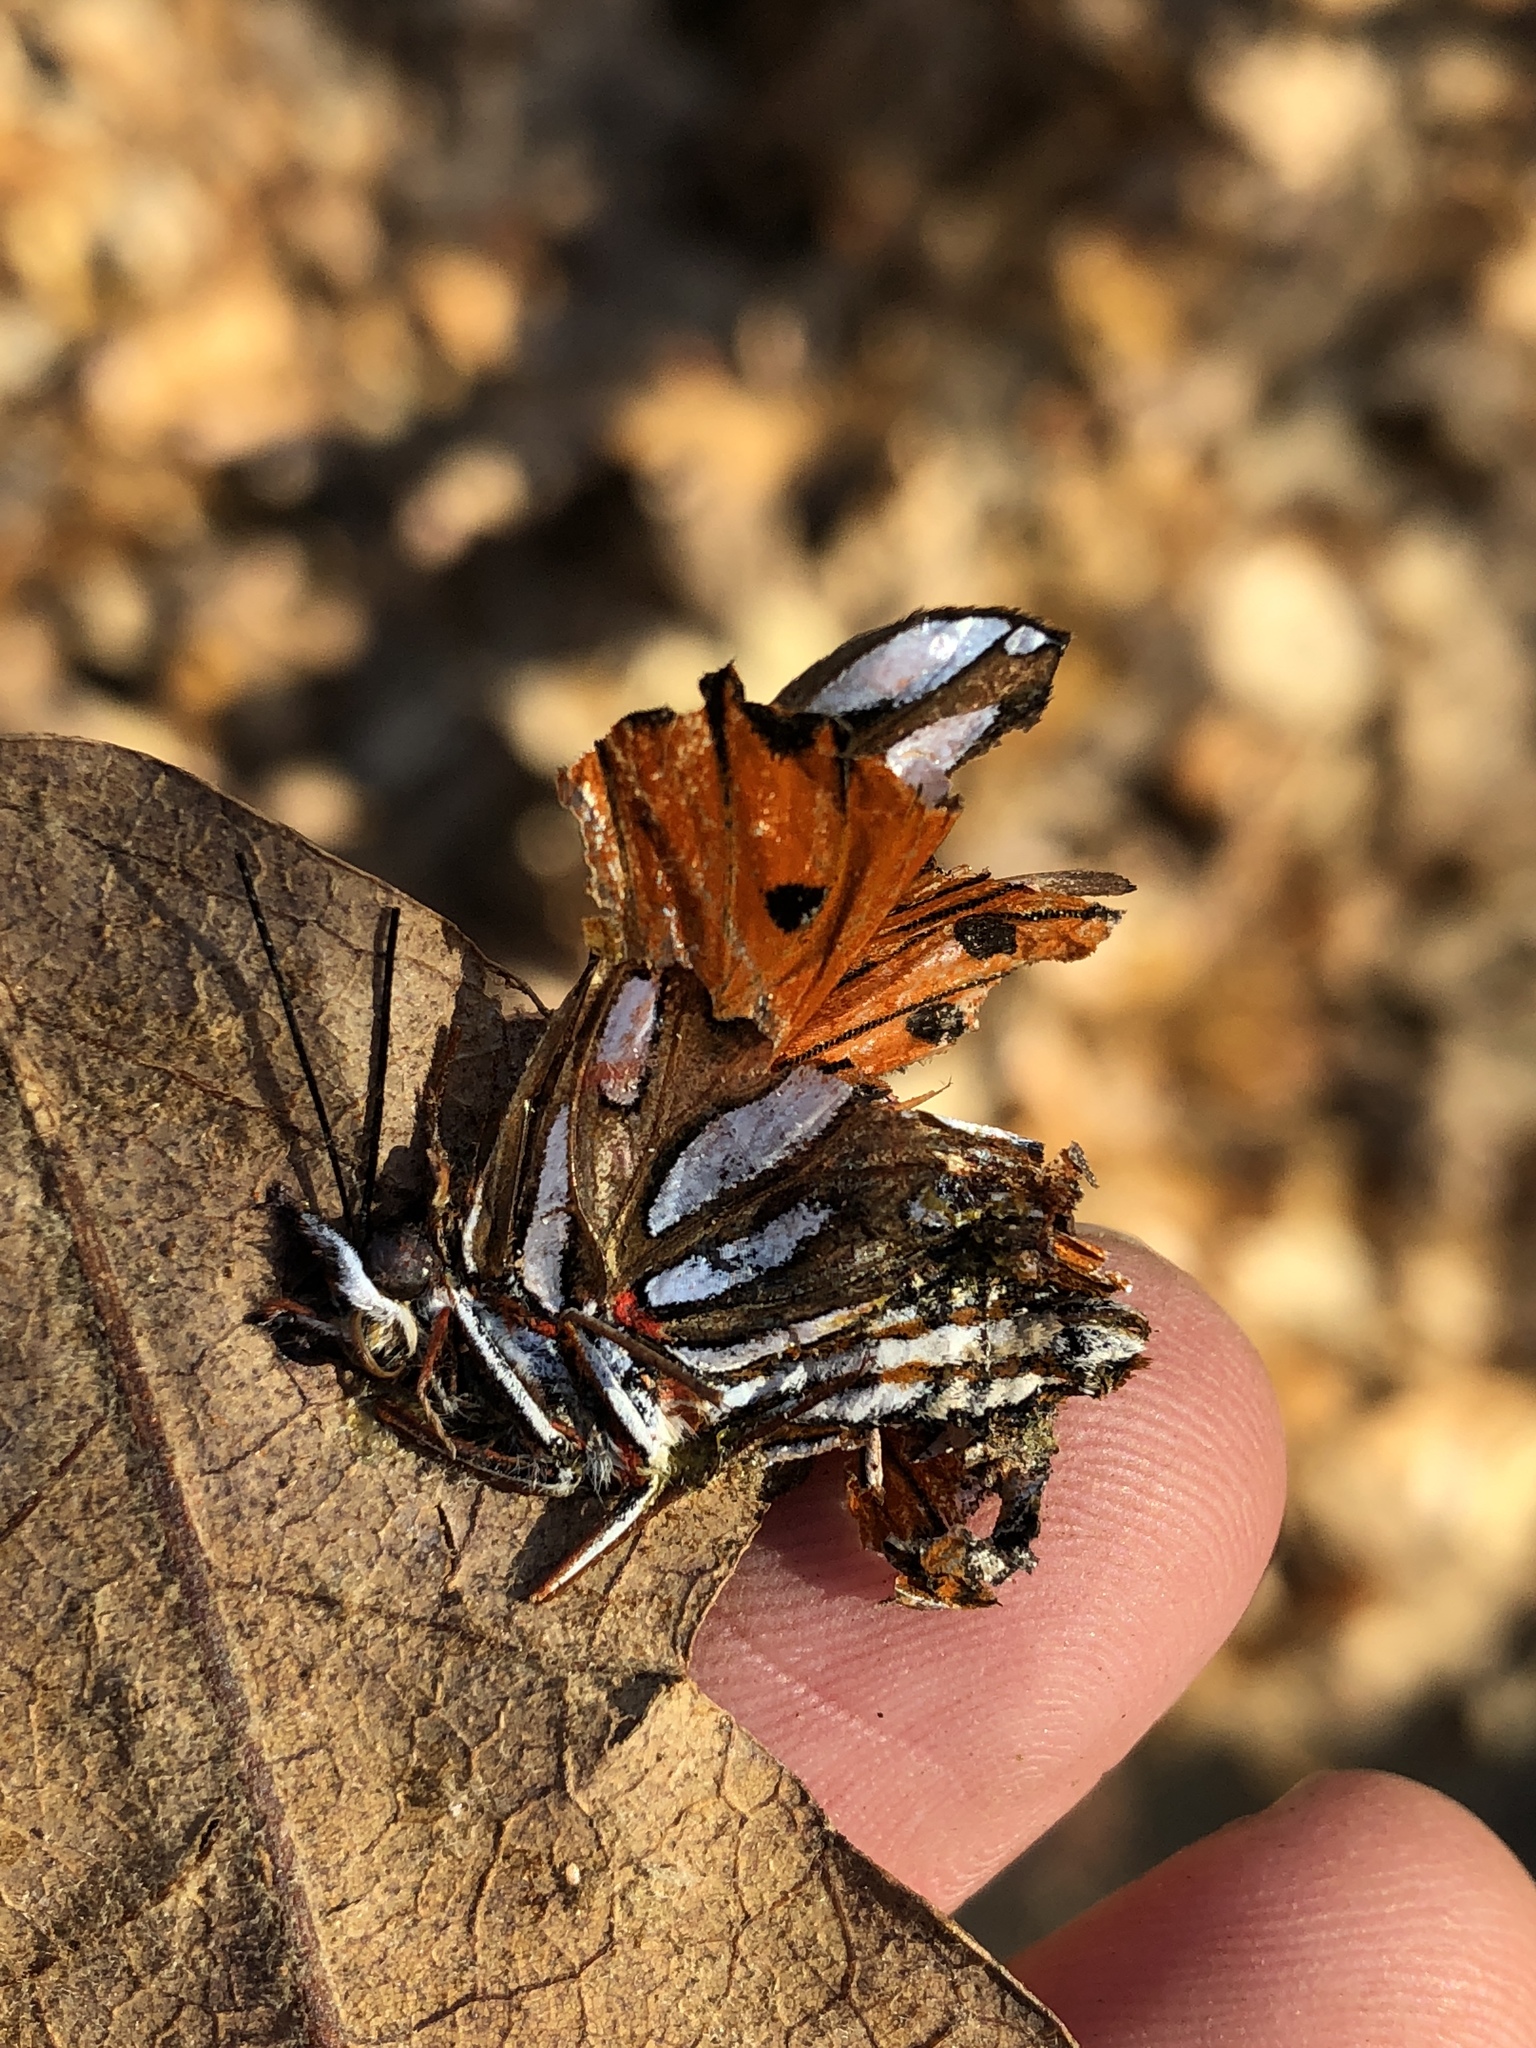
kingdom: Animalia
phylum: Arthropoda
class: Insecta
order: Lepidoptera
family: Nymphalidae
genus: Dione
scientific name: Dione vanillae
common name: Gulf fritillary
